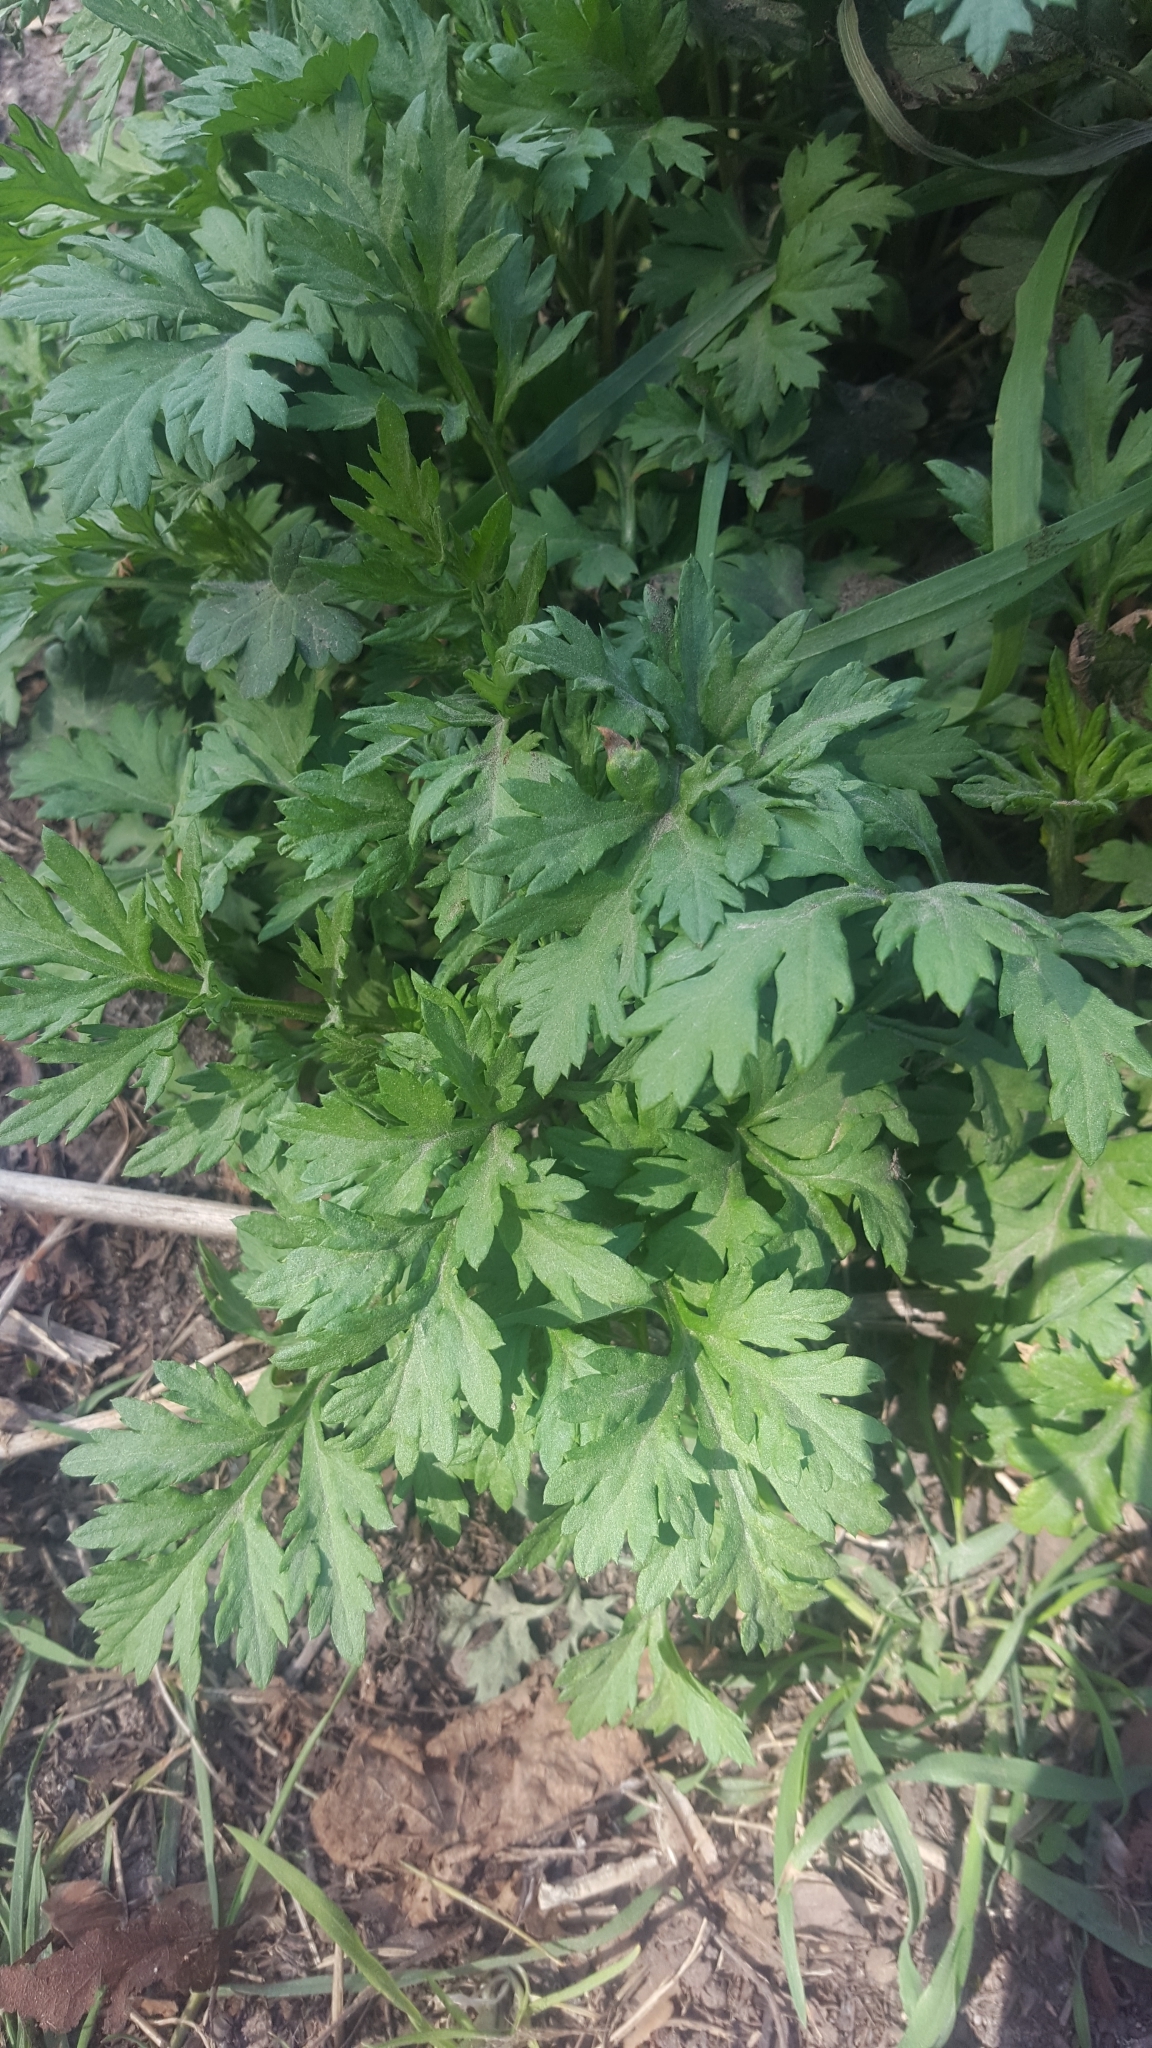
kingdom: Plantae
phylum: Tracheophyta
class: Magnoliopsida
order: Asterales
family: Asteraceae
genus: Artemisia
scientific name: Artemisia vulgaris
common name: Mugwort
